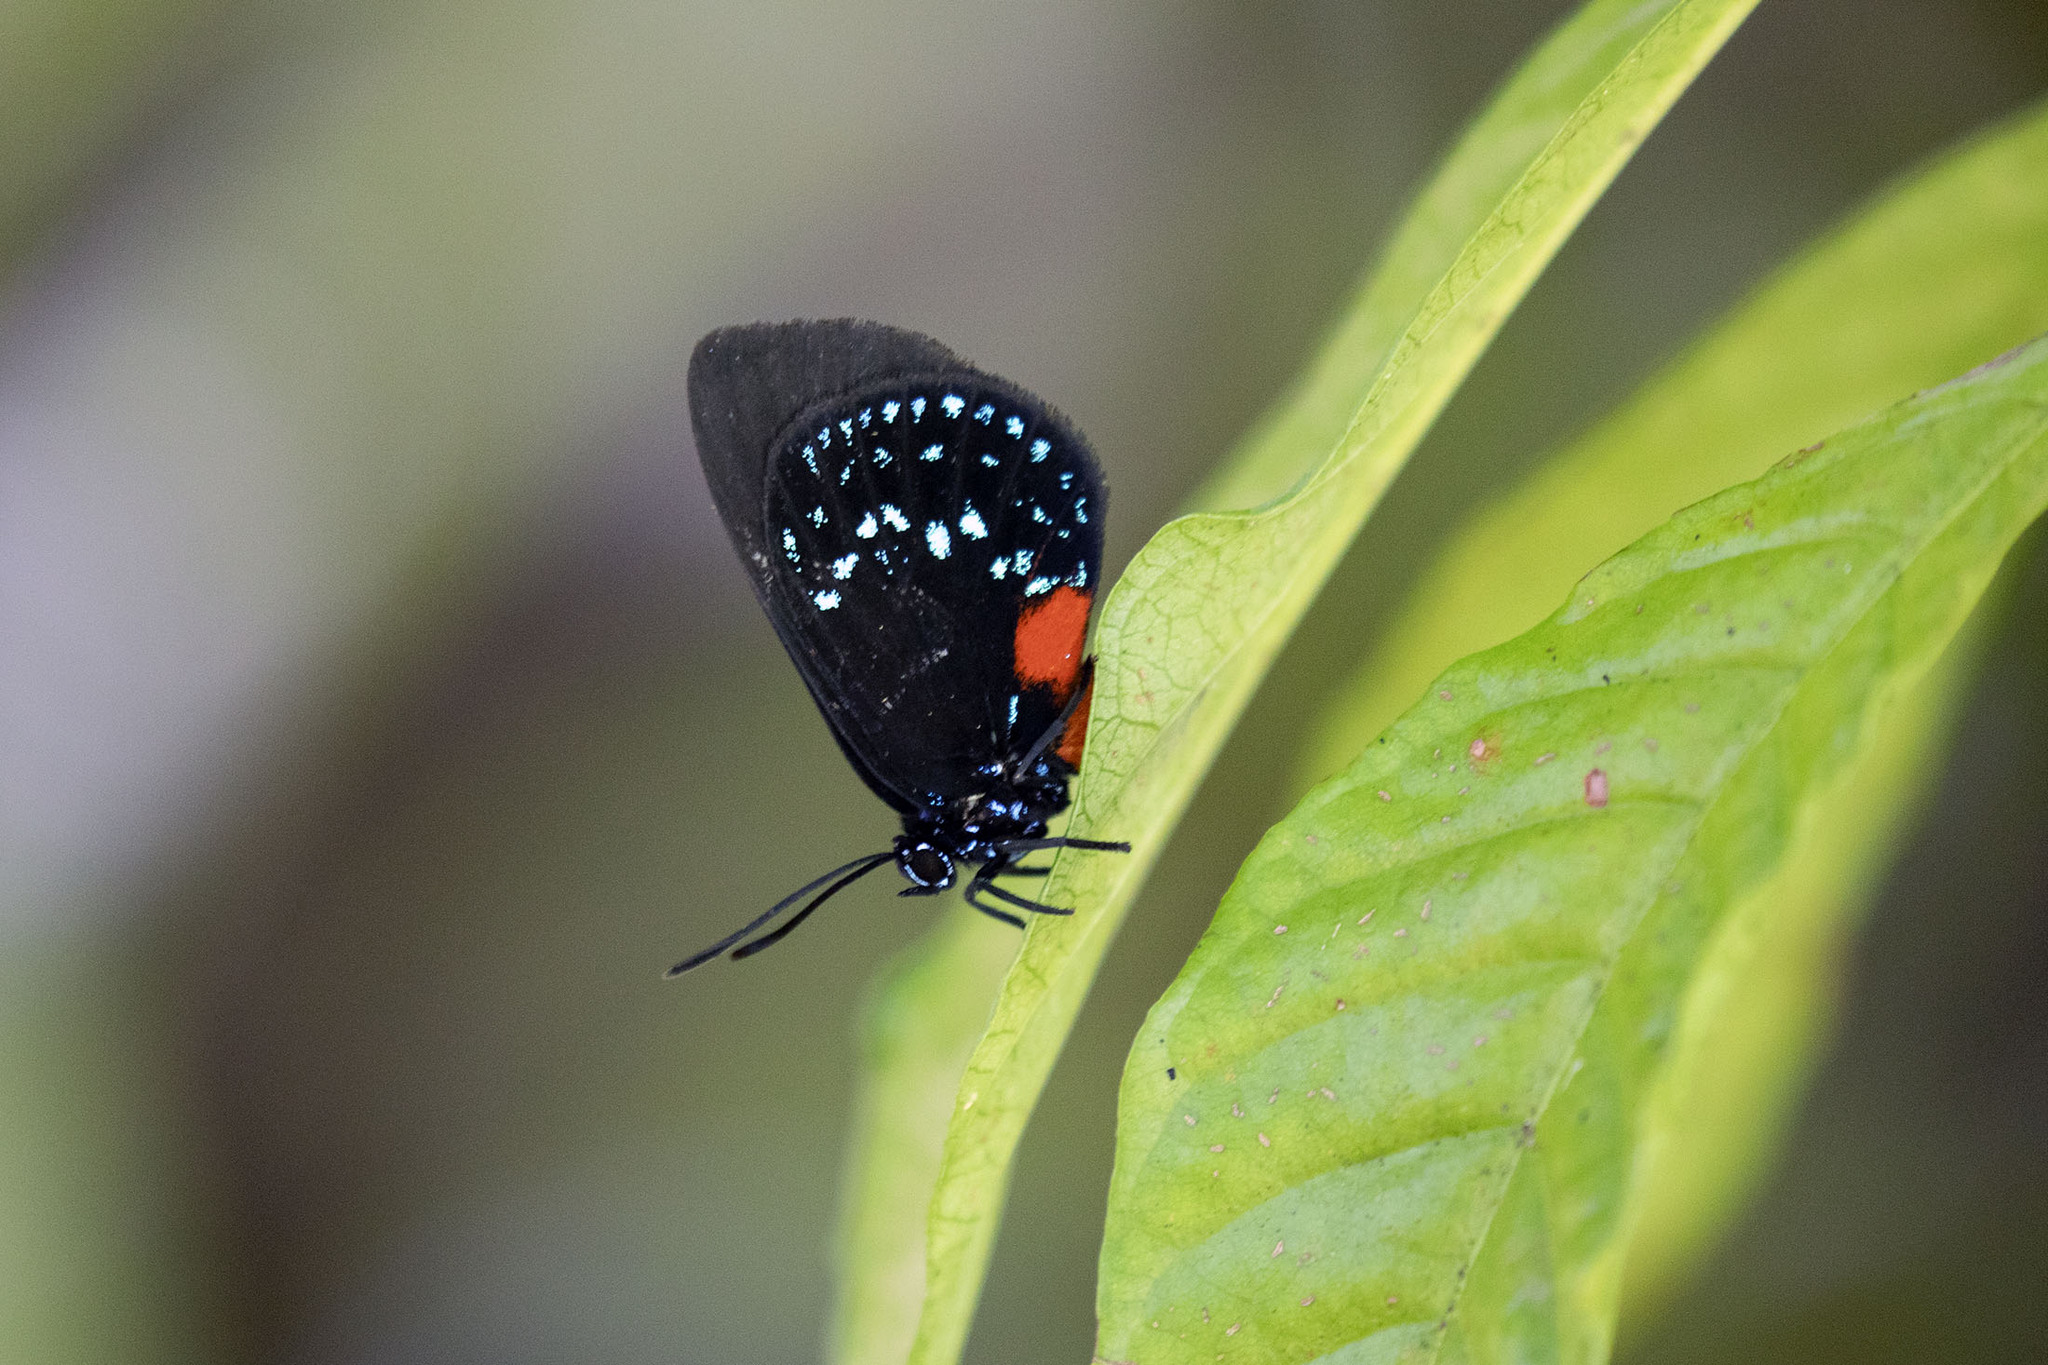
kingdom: Animalia
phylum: Arthropoda
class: Insecta
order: Lepidoptera
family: Lycaenidae
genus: Eumaeus
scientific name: Eumaeus atala
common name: Atala
